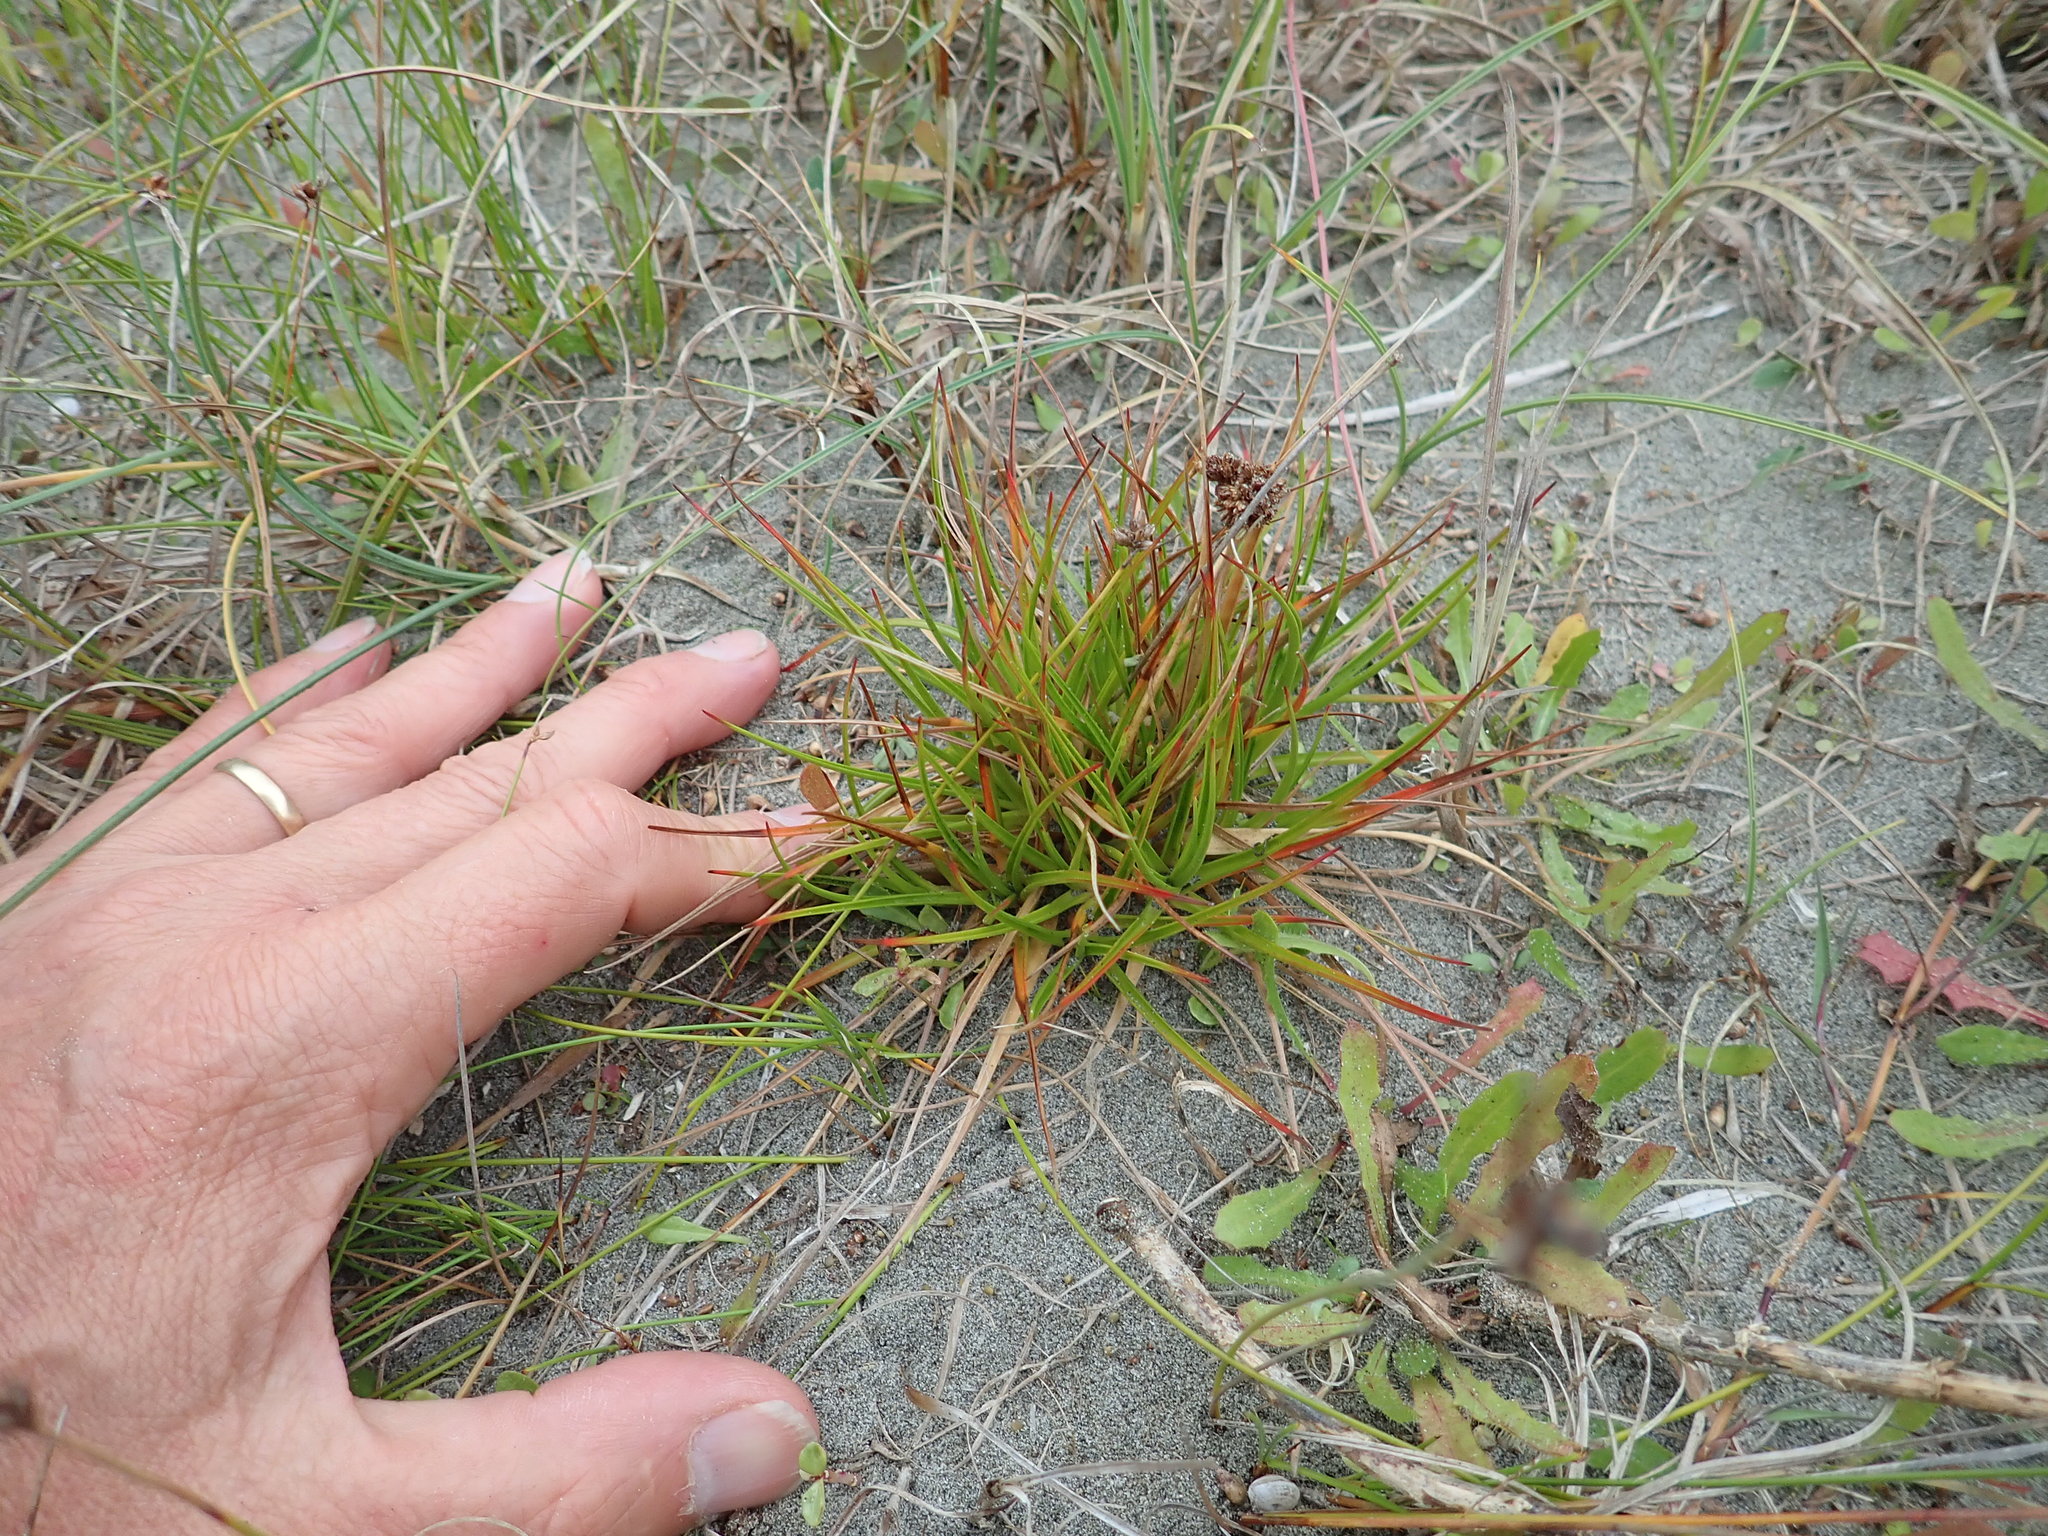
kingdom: Plantae
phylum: Tracheophyta
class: Liliopsida
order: Poales
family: Juncaceae
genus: Juncus
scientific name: Juncus caespiticius
